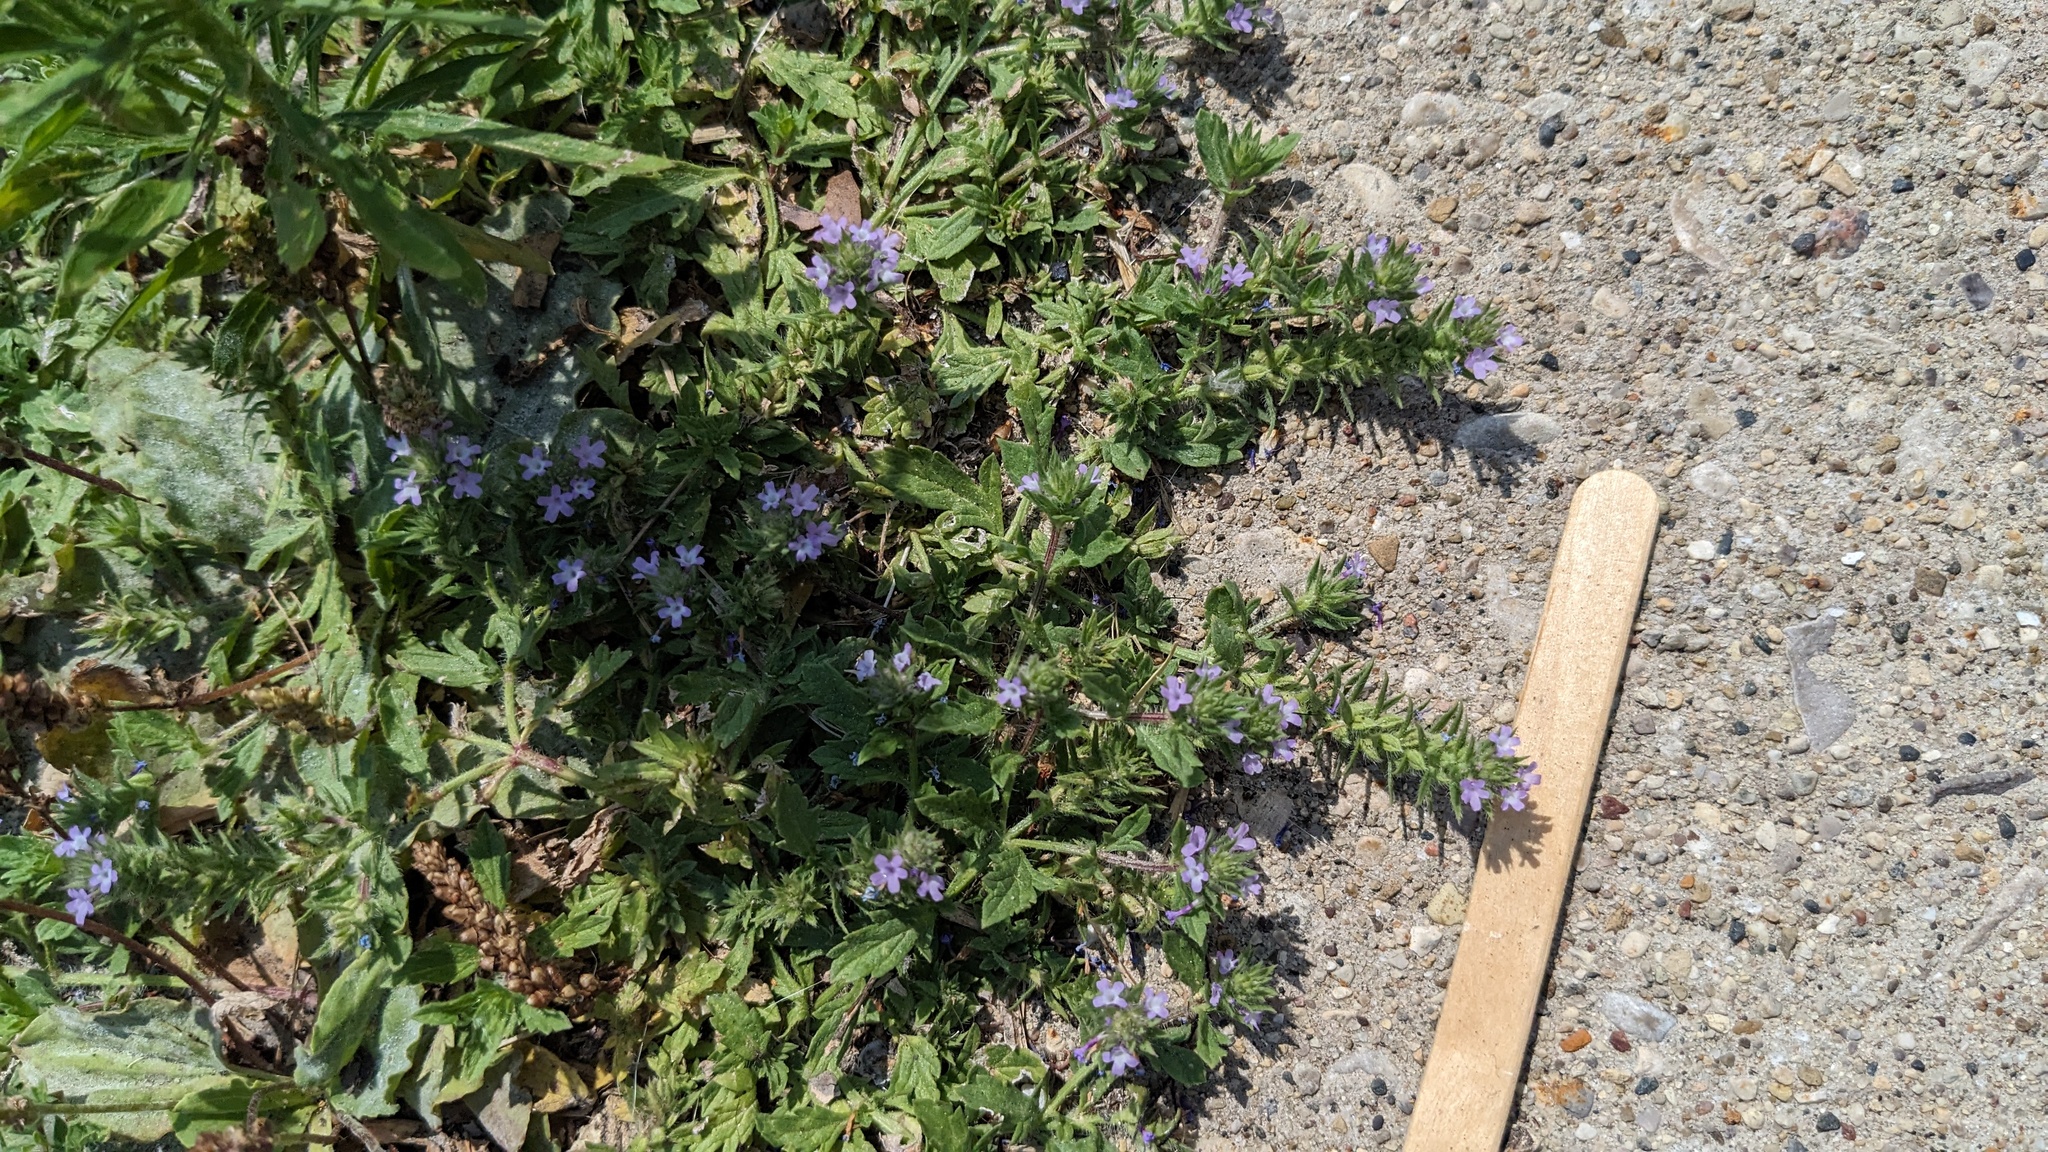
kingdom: Plantae
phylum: Tracheophyta
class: Magnoliopsida
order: Lamiales
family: Verbenaceae
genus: Verbena
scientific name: Verbena bracteata
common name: Bracted vervain
